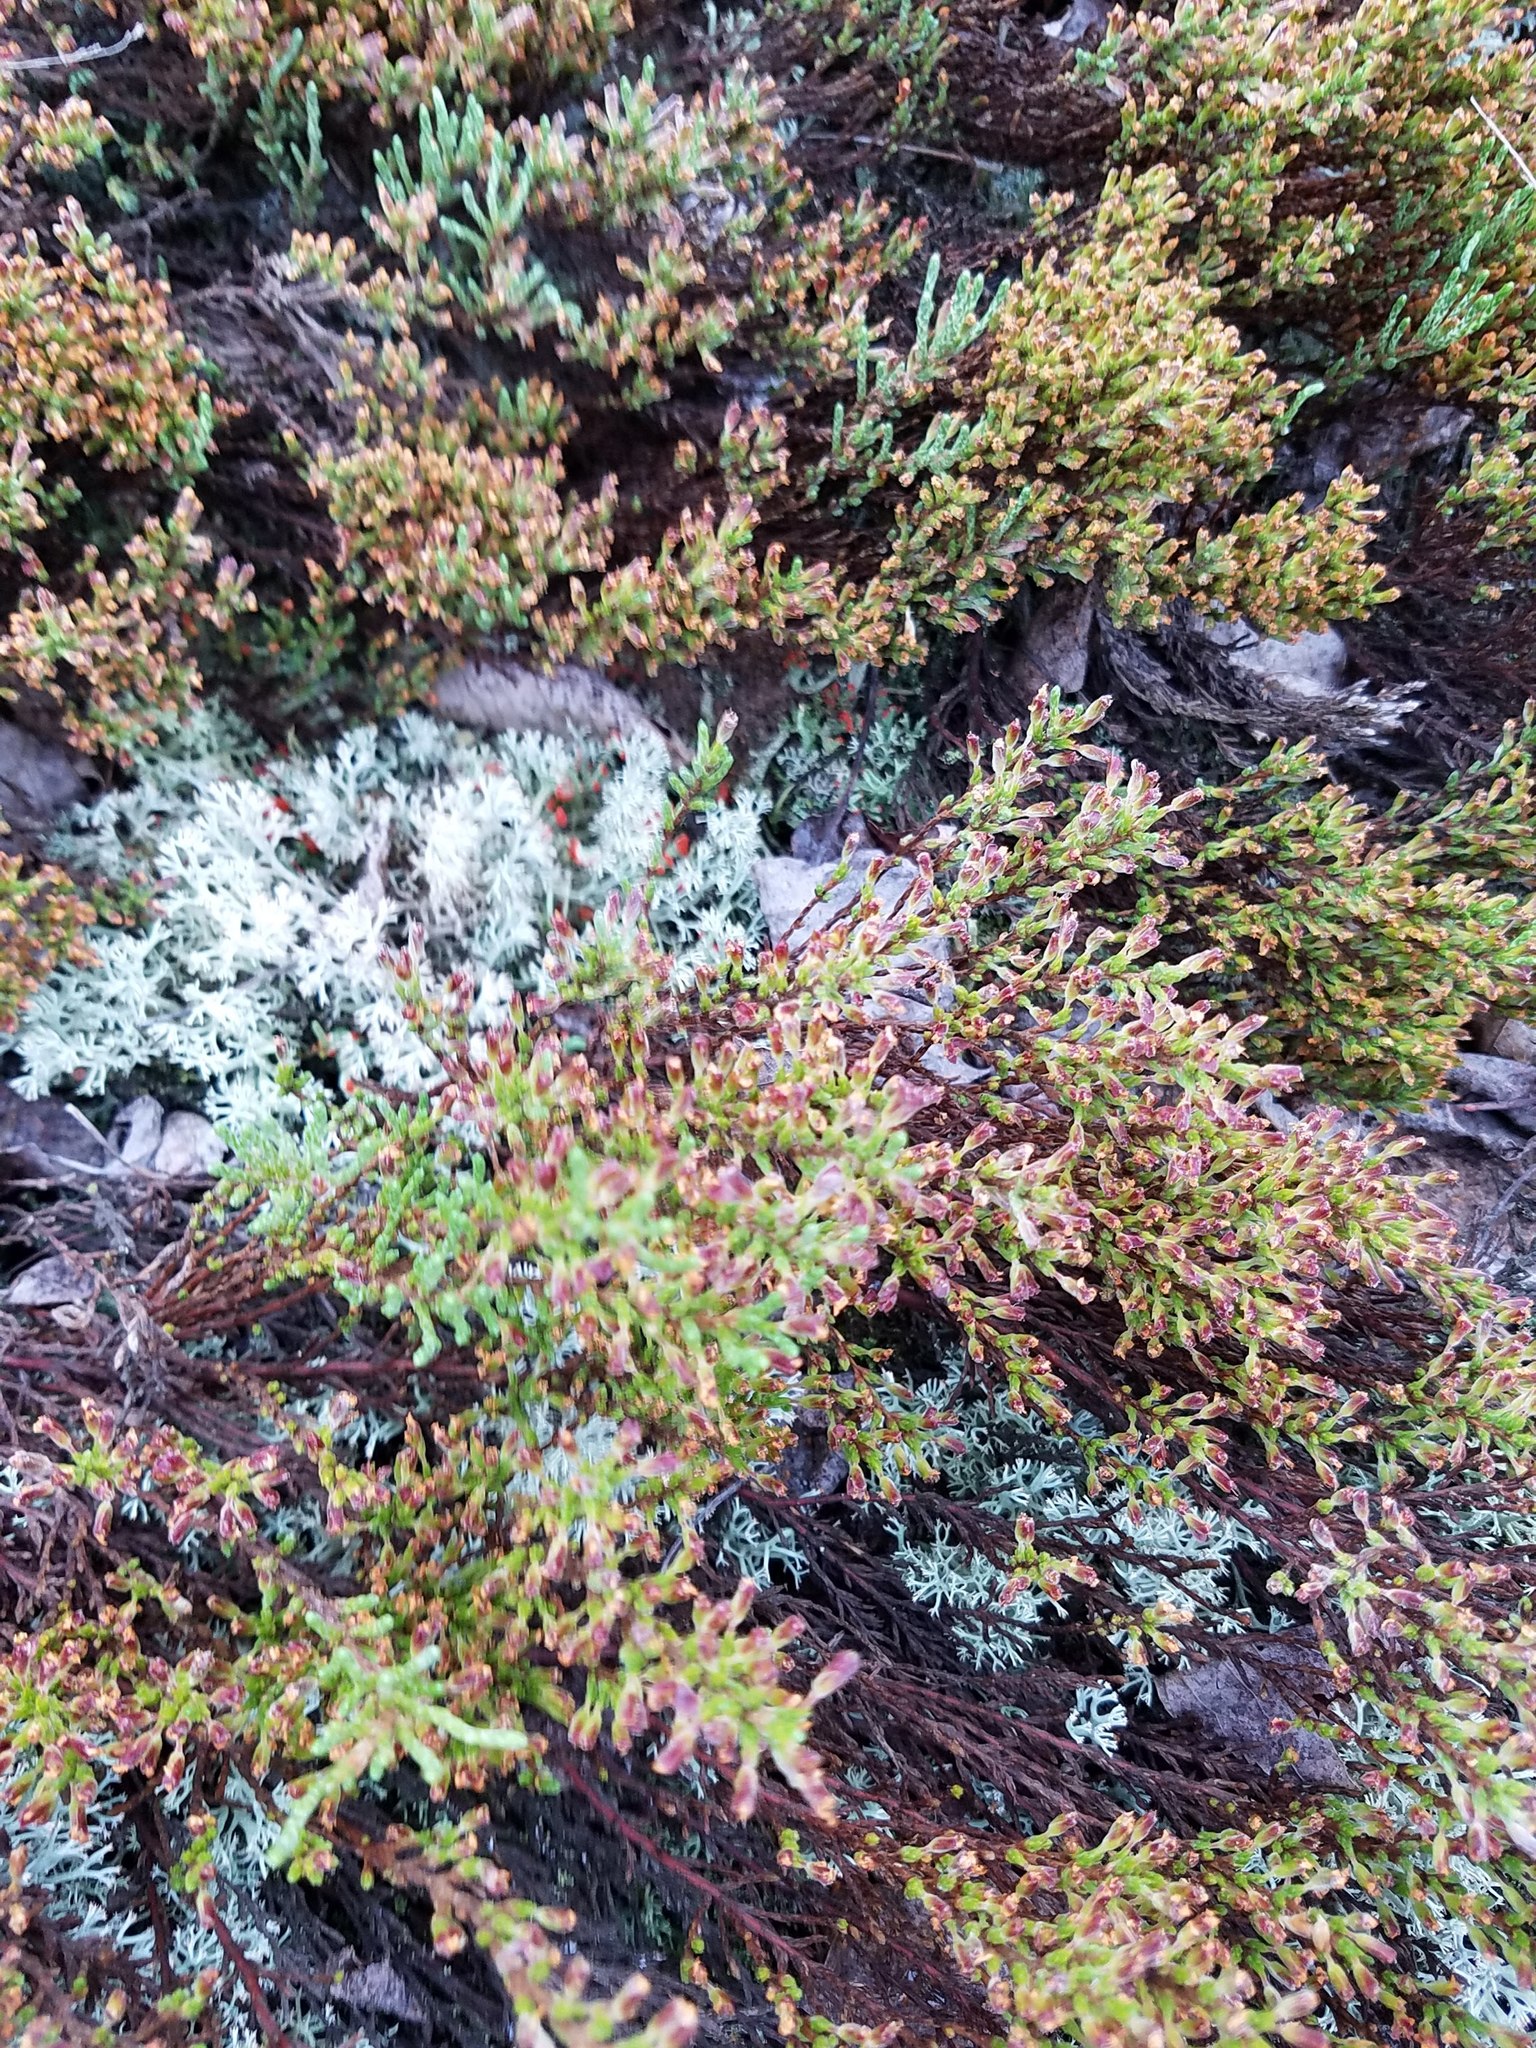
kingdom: Plantae
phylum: Tracheophyta
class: Magnoliopsida
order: Malvales
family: Cistaceae
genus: Hudsonia
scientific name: Hudsonia tomentosa
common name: Beach-heath
